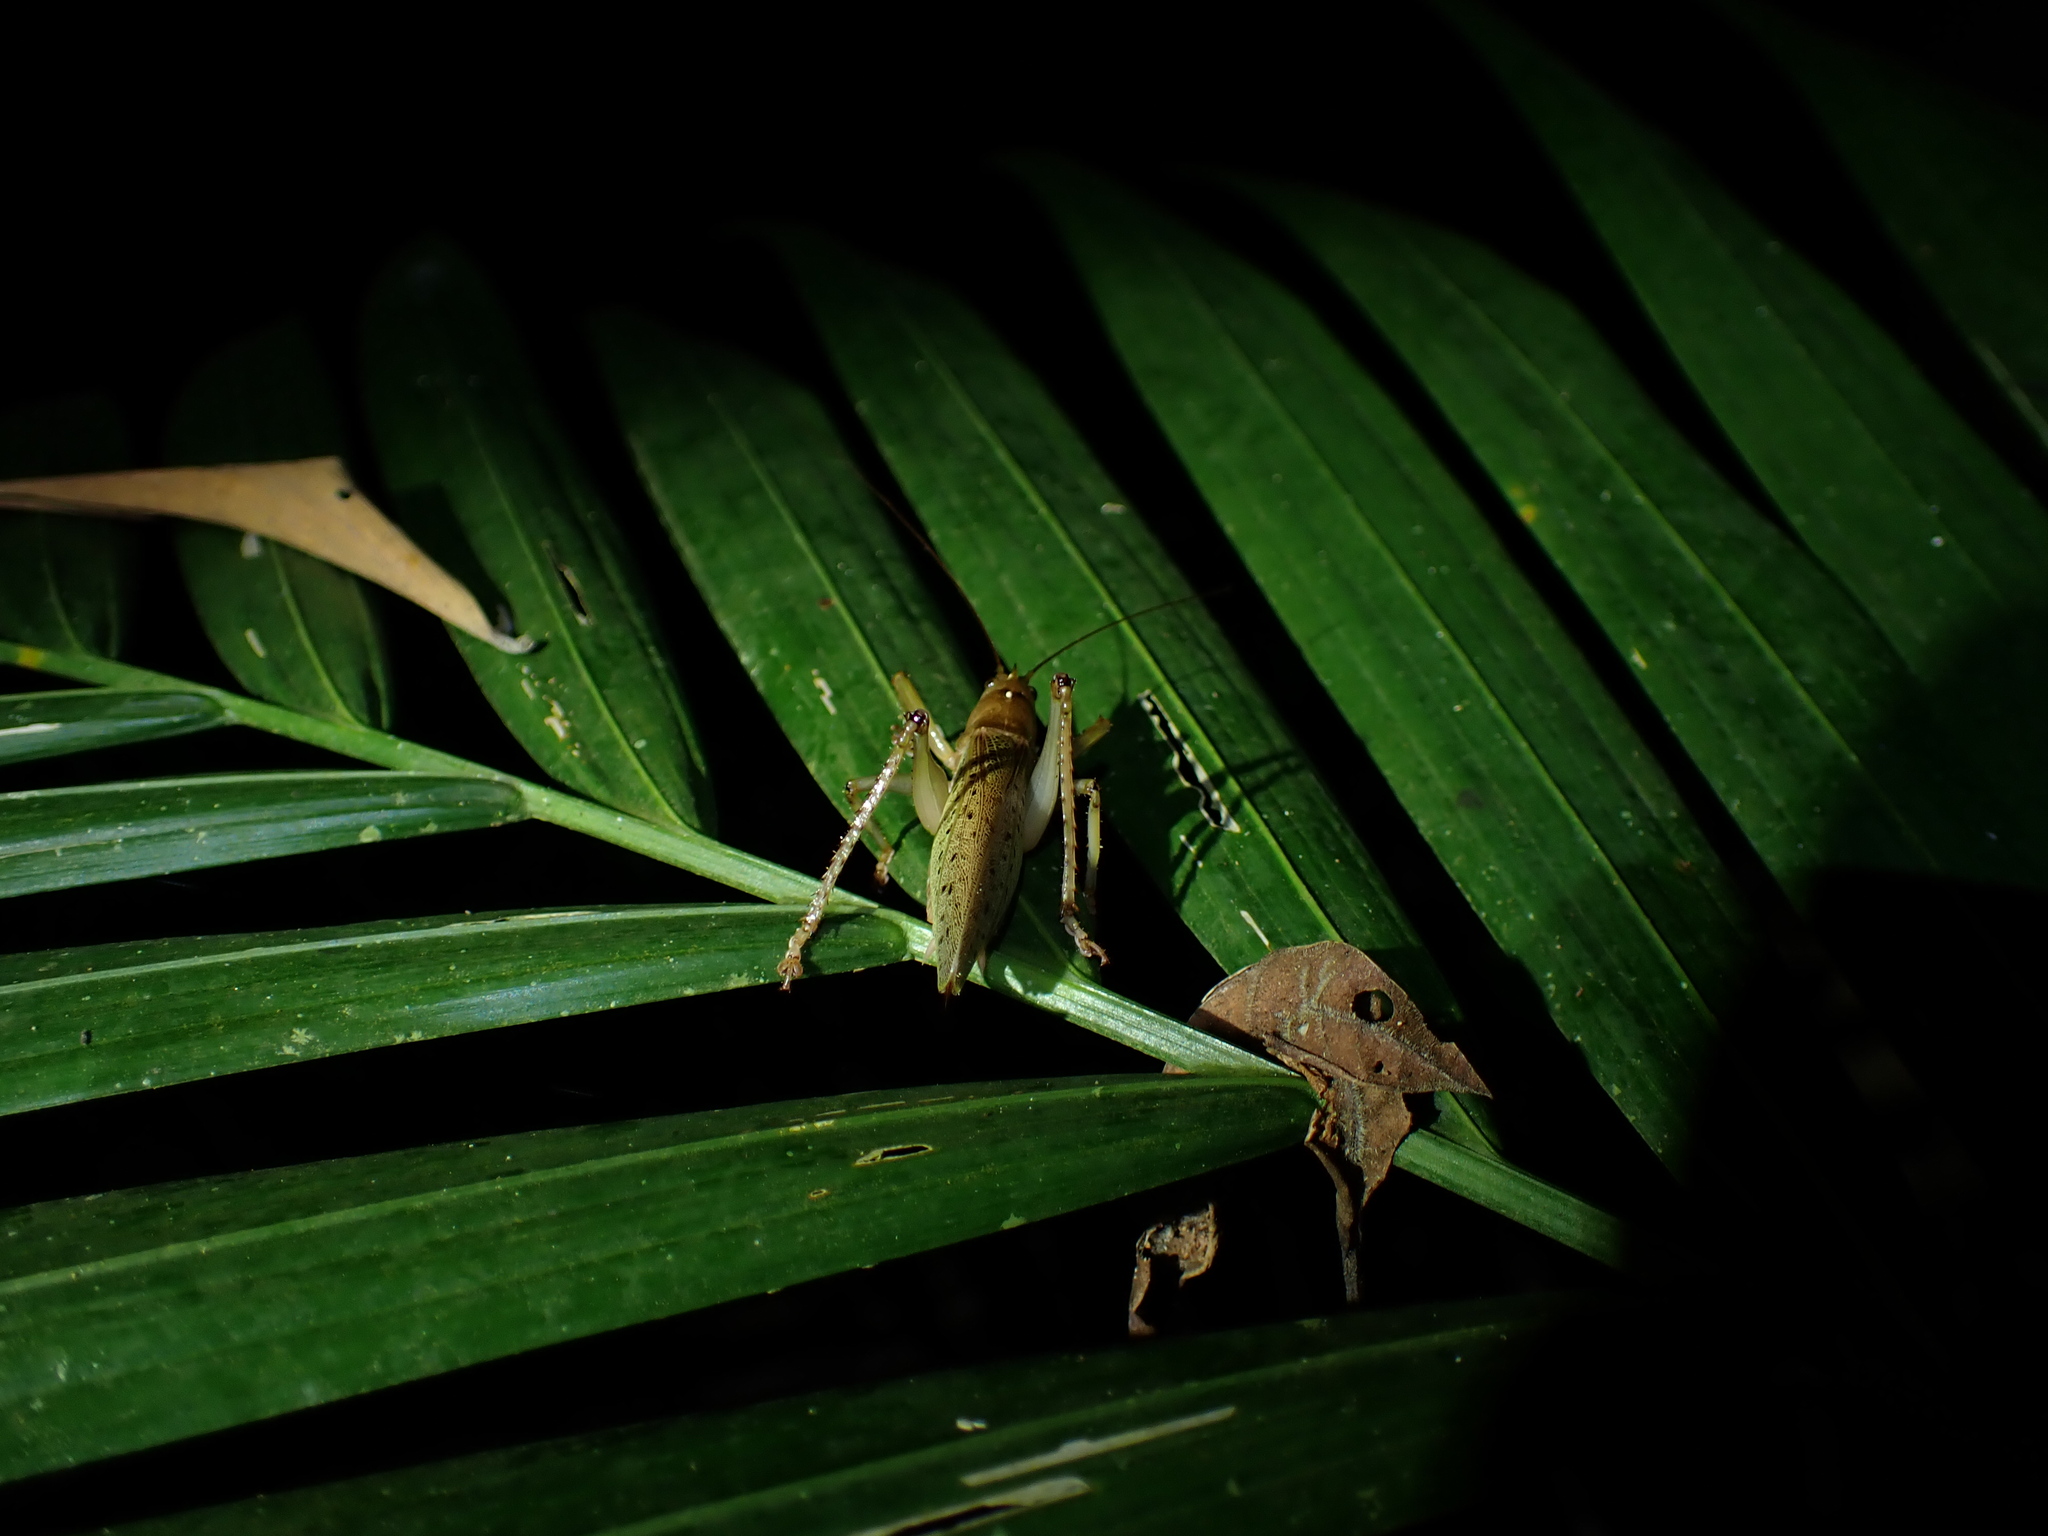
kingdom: Animalia
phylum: Arthropoda
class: Insecta
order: Orthoptera
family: Tettigoniidae
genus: Barbaragraecia
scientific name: Barbaragraecia richardsoni
